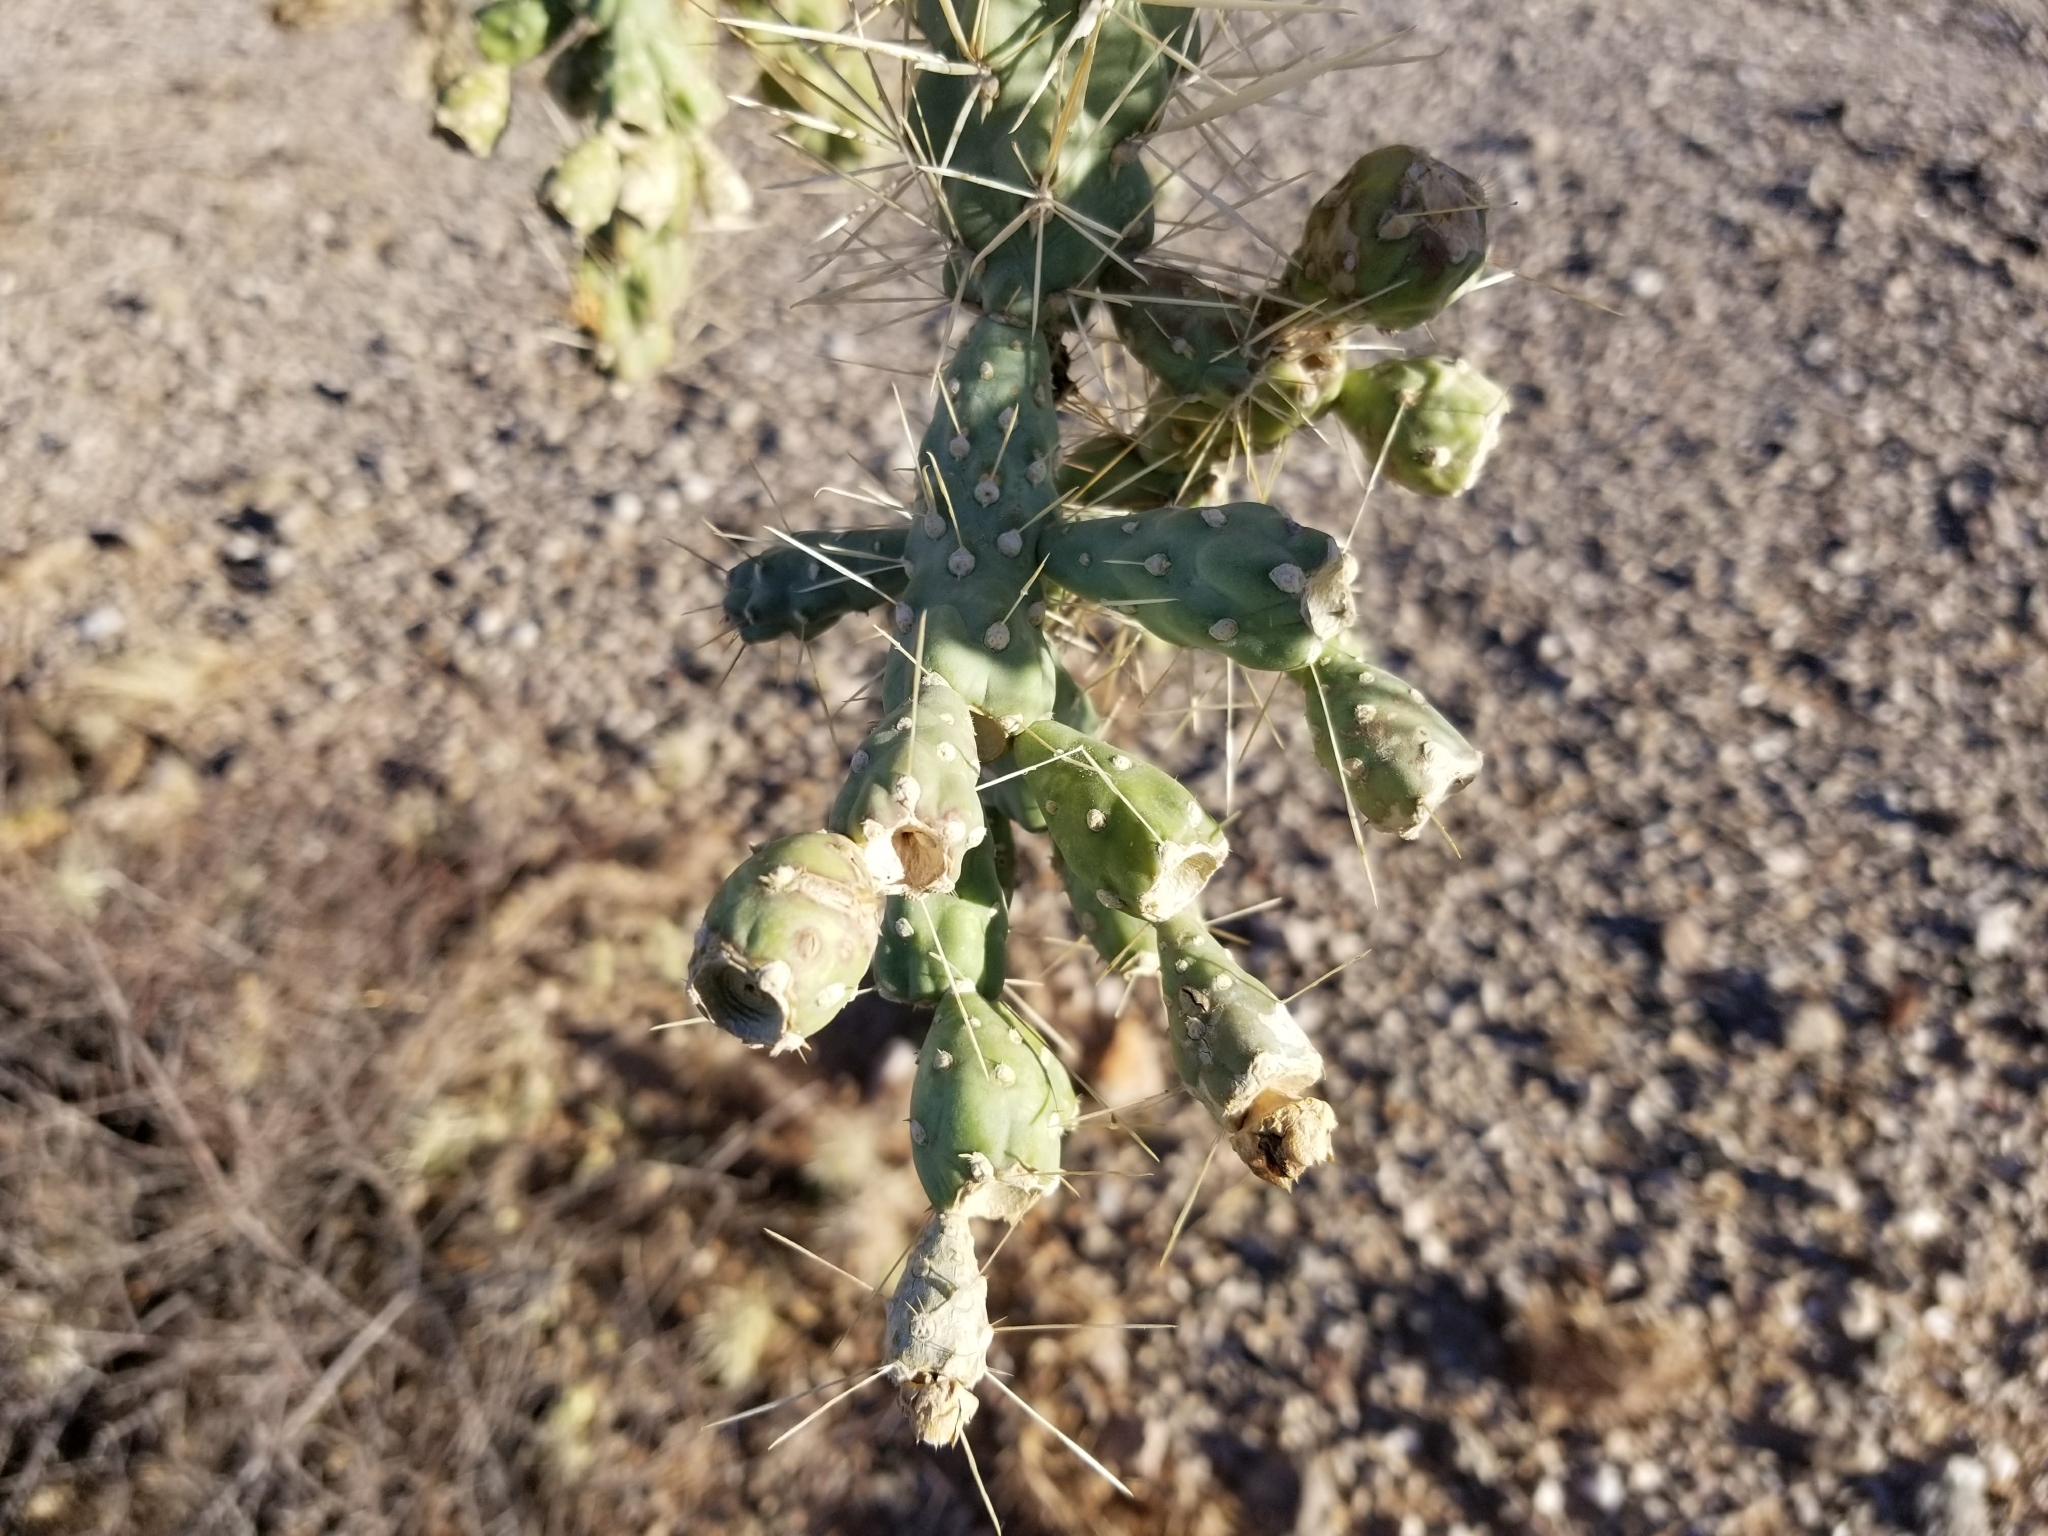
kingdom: Plantae
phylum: Tracheophyta
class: Magnoliopsida
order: Caryophyllales
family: Cactaceae
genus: Cylindropuntia
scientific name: Cylindropuntia fulgida
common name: Jumping cholla
